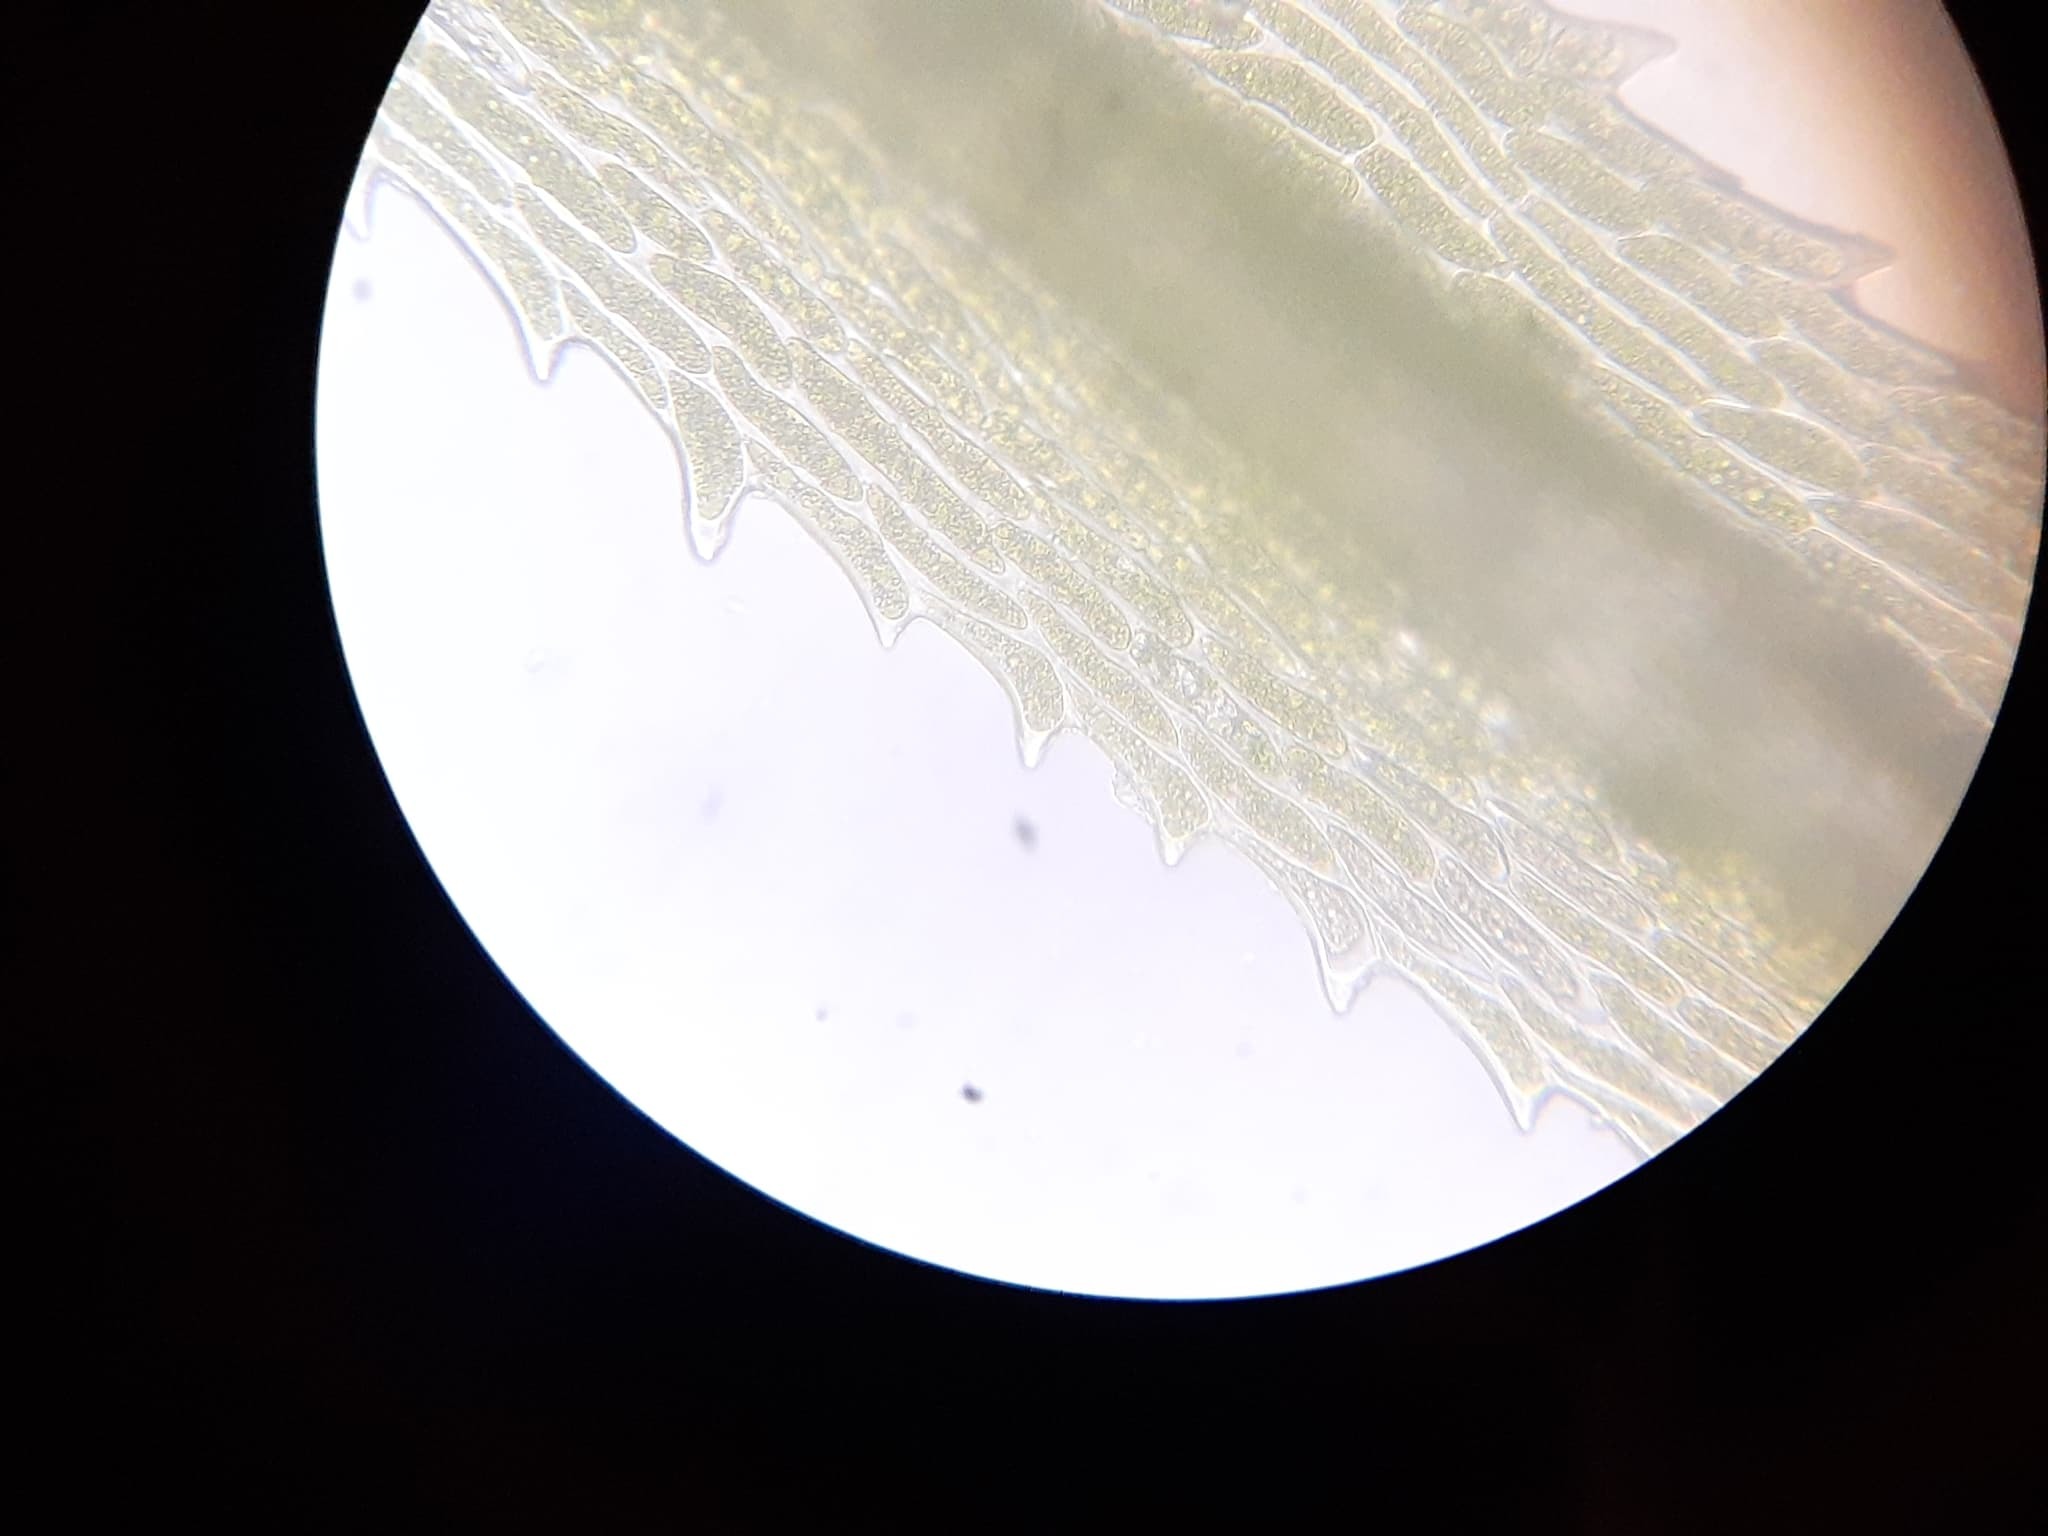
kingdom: Plantae
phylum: Bryophyta
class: Bryopsida
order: Dicranales
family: Dicranaceae
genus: Dicranum
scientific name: Dicranum scoparium
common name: Broom fork-moss
